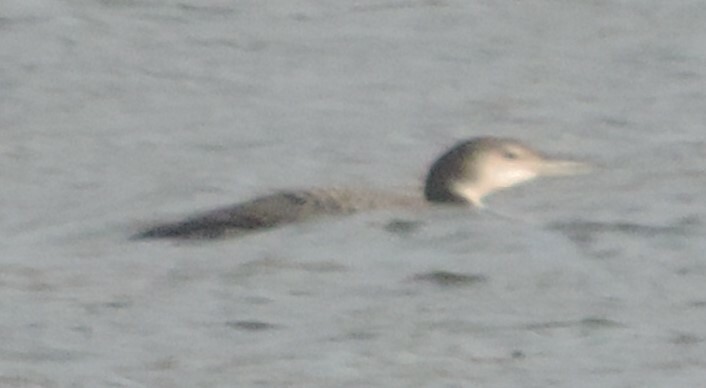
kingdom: Animalia
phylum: Chordata
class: Aves
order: Gaviiformes
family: Gaviidae
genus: Gavia
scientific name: Gavia immer
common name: Common loon
